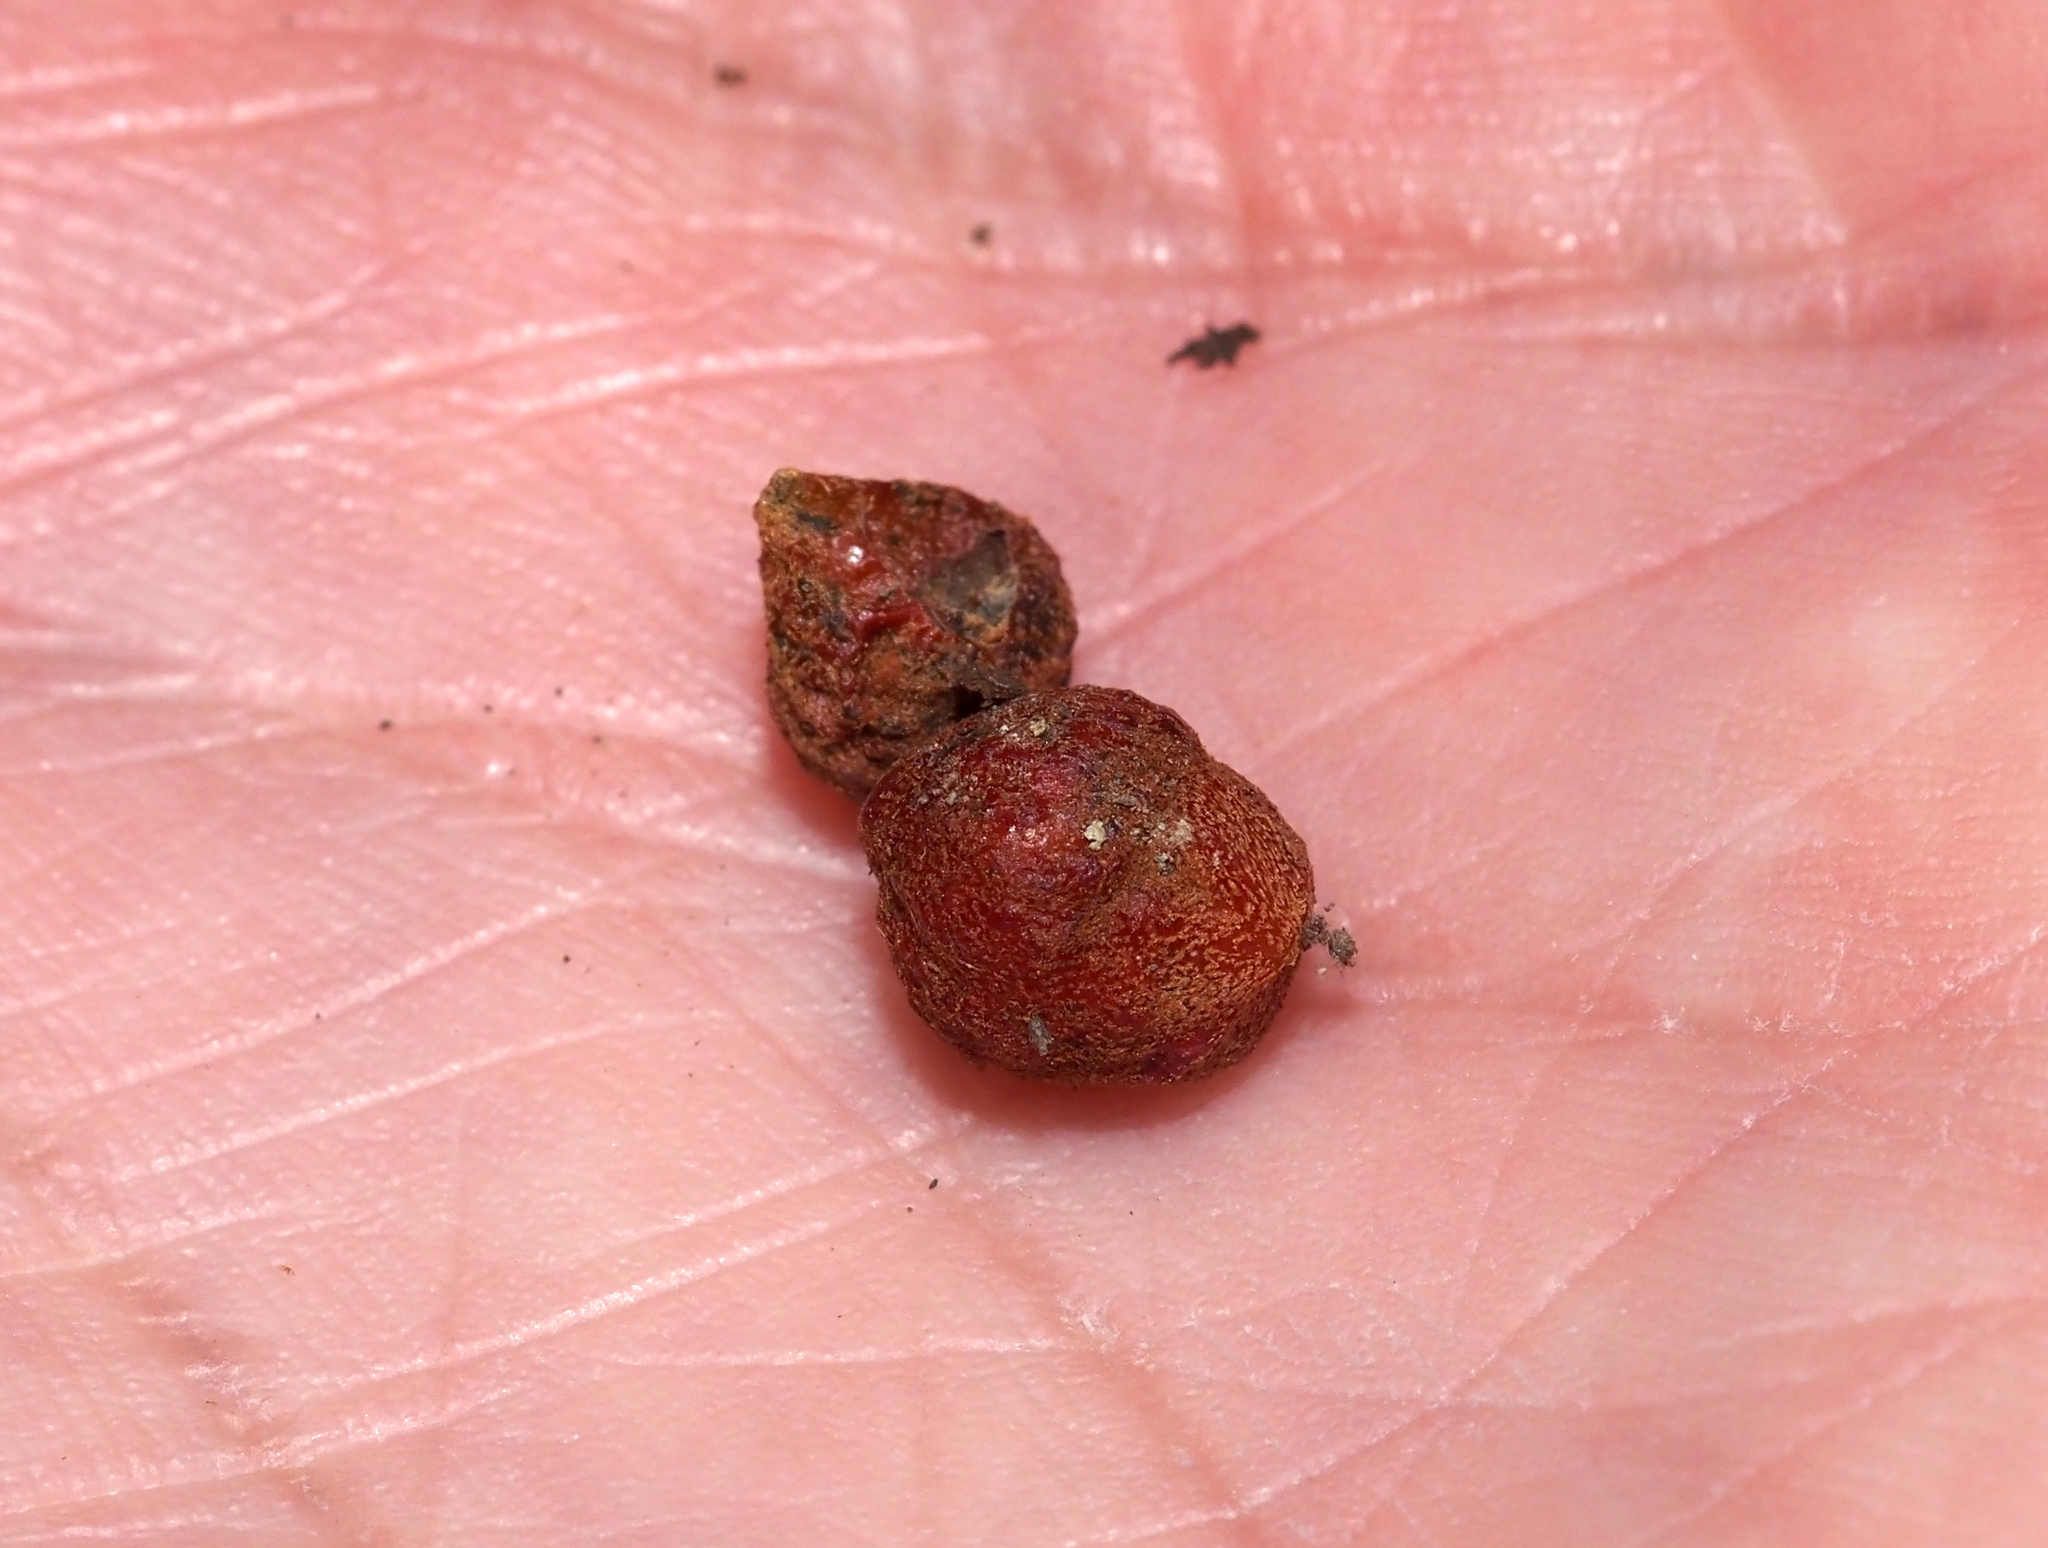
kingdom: Animalia
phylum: Arthropoda
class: Insecta
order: Hymenoptera
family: Cynipidae
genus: Andricus
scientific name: Andricus
